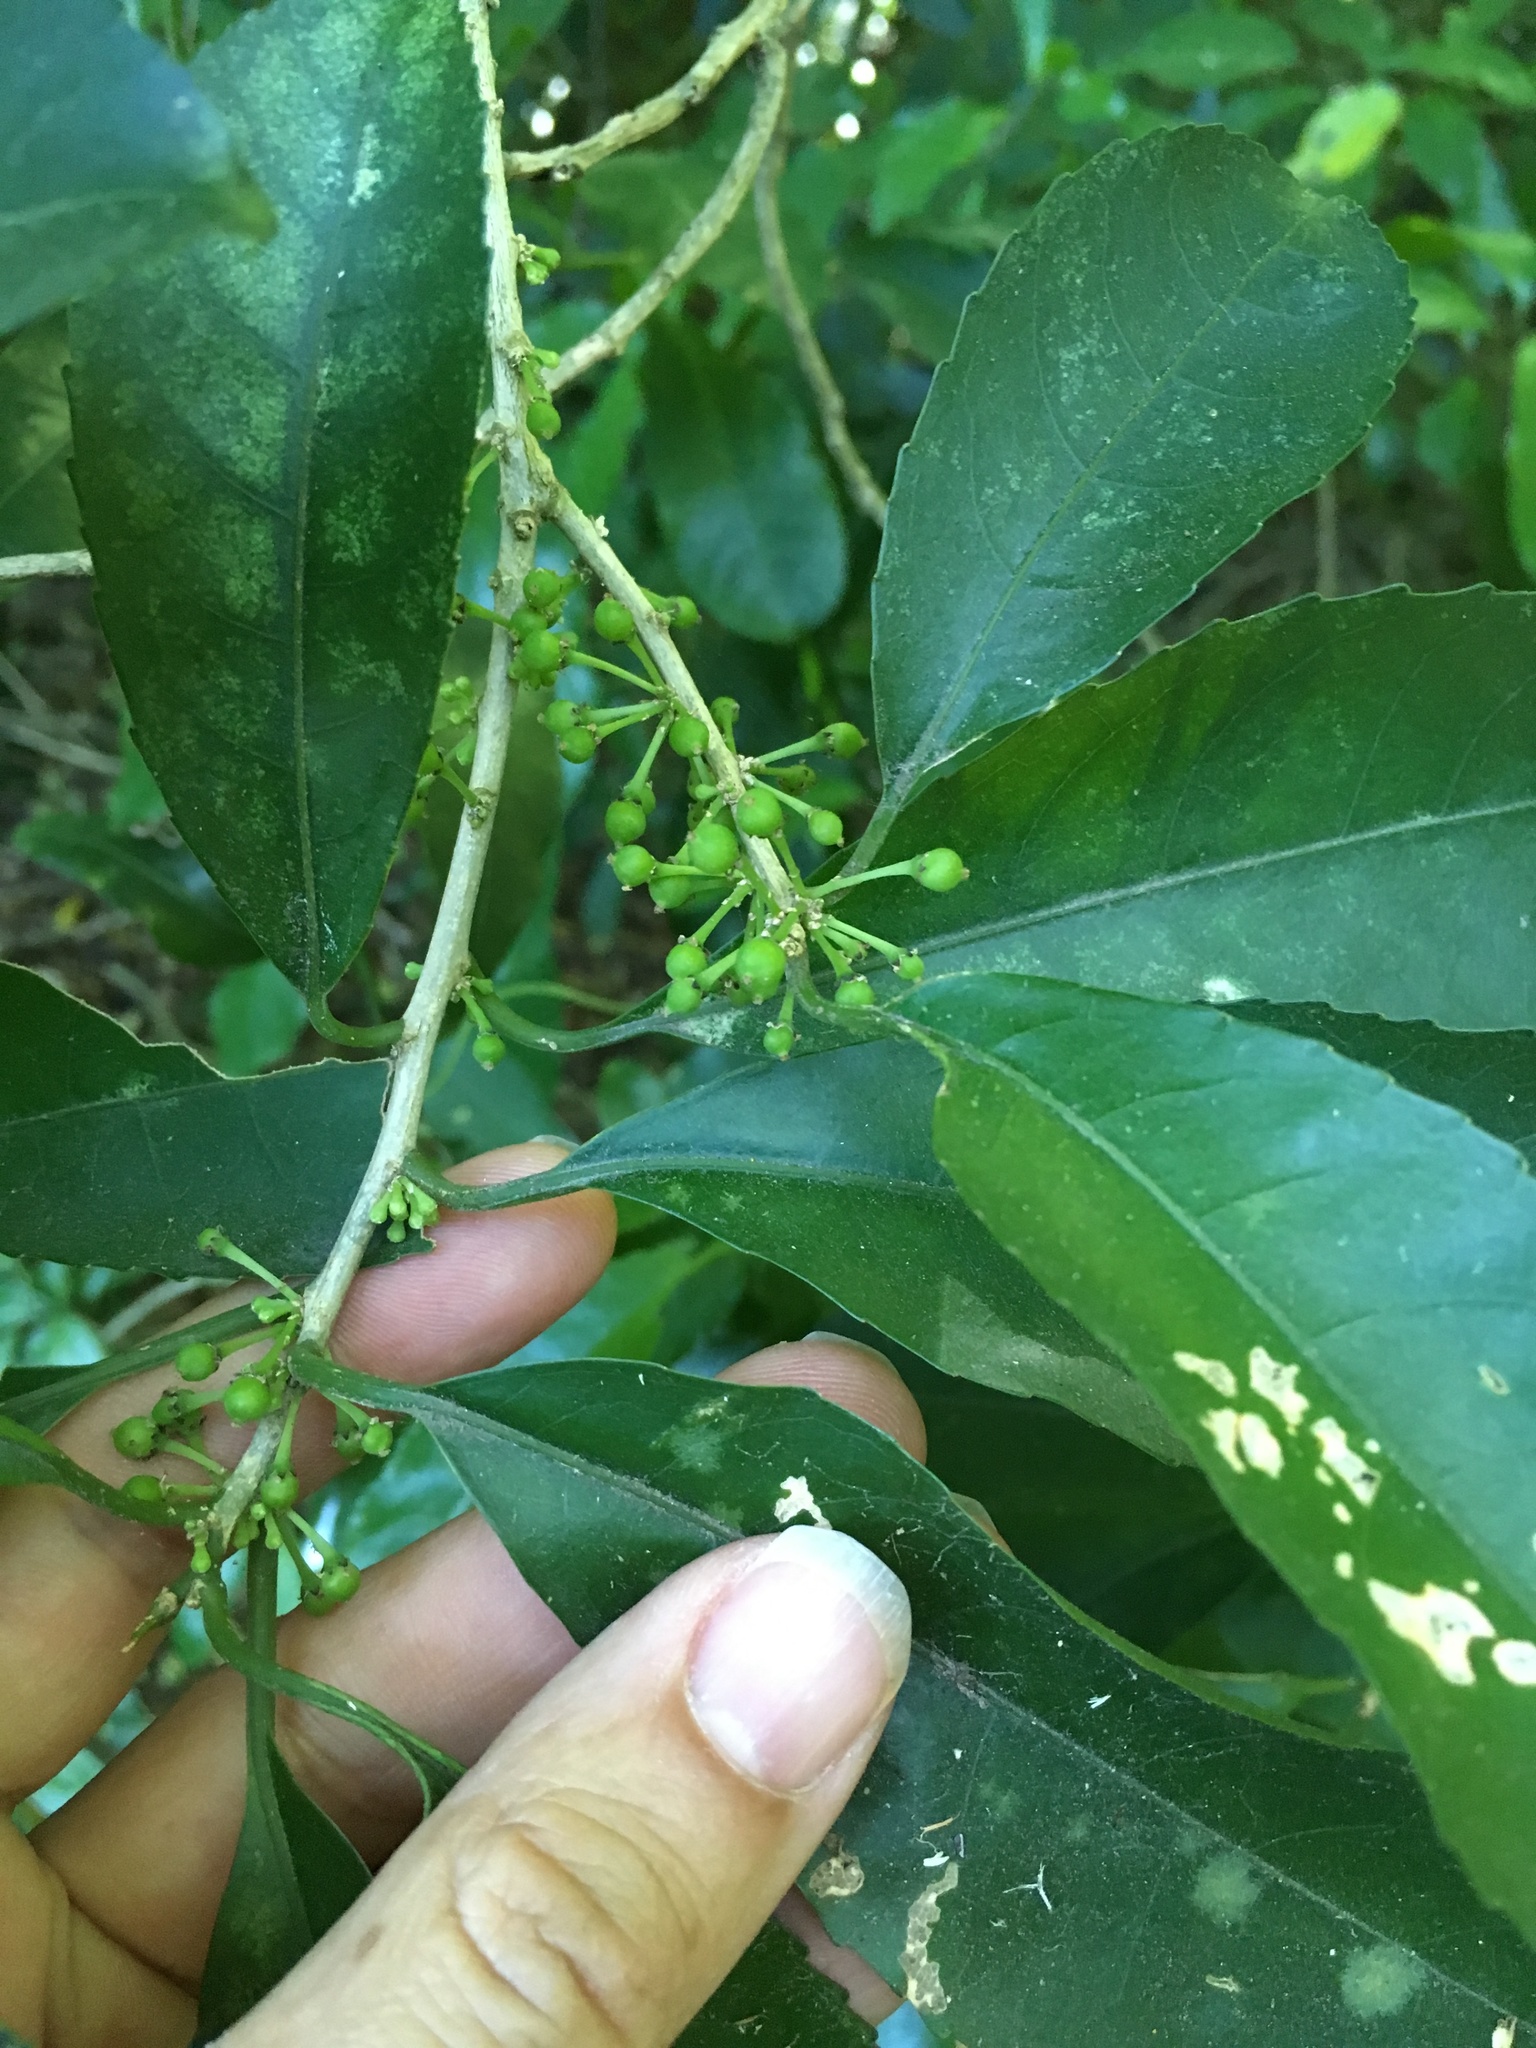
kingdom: Plantae
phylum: Tracheophyta
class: Magnoliopsida
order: Malpighiales
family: Violaceae
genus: Melicytus
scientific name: Melicytus ramiflorus
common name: Mahoe
